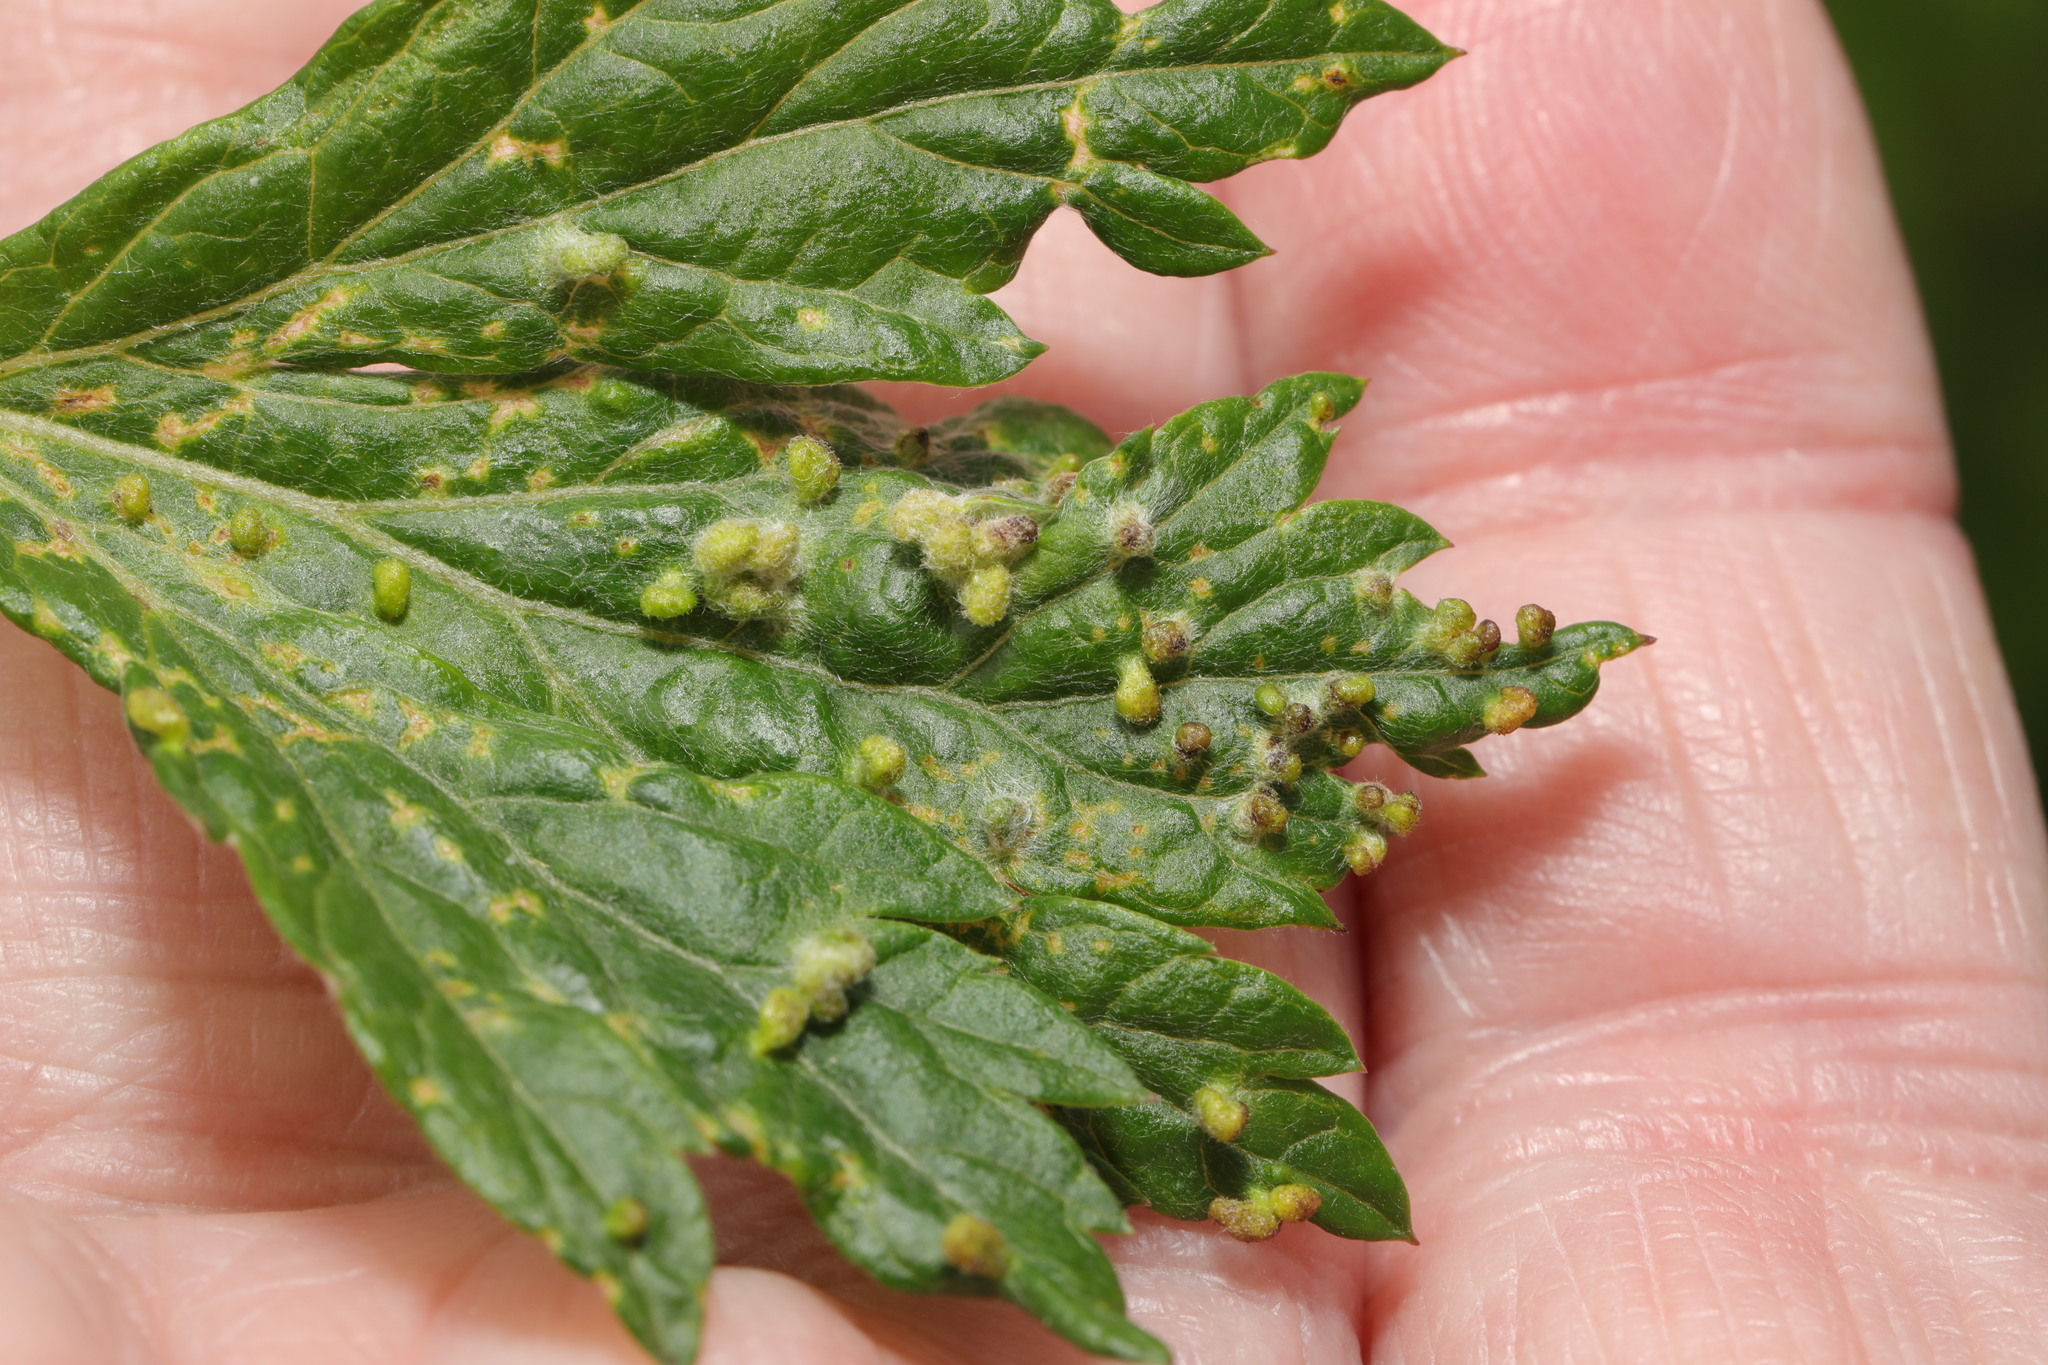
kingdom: Animalia
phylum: Arthropoda
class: Arachnida
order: Trombidiformes
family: Eriophyidae
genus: Aceria
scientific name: Aceria artemisiae
